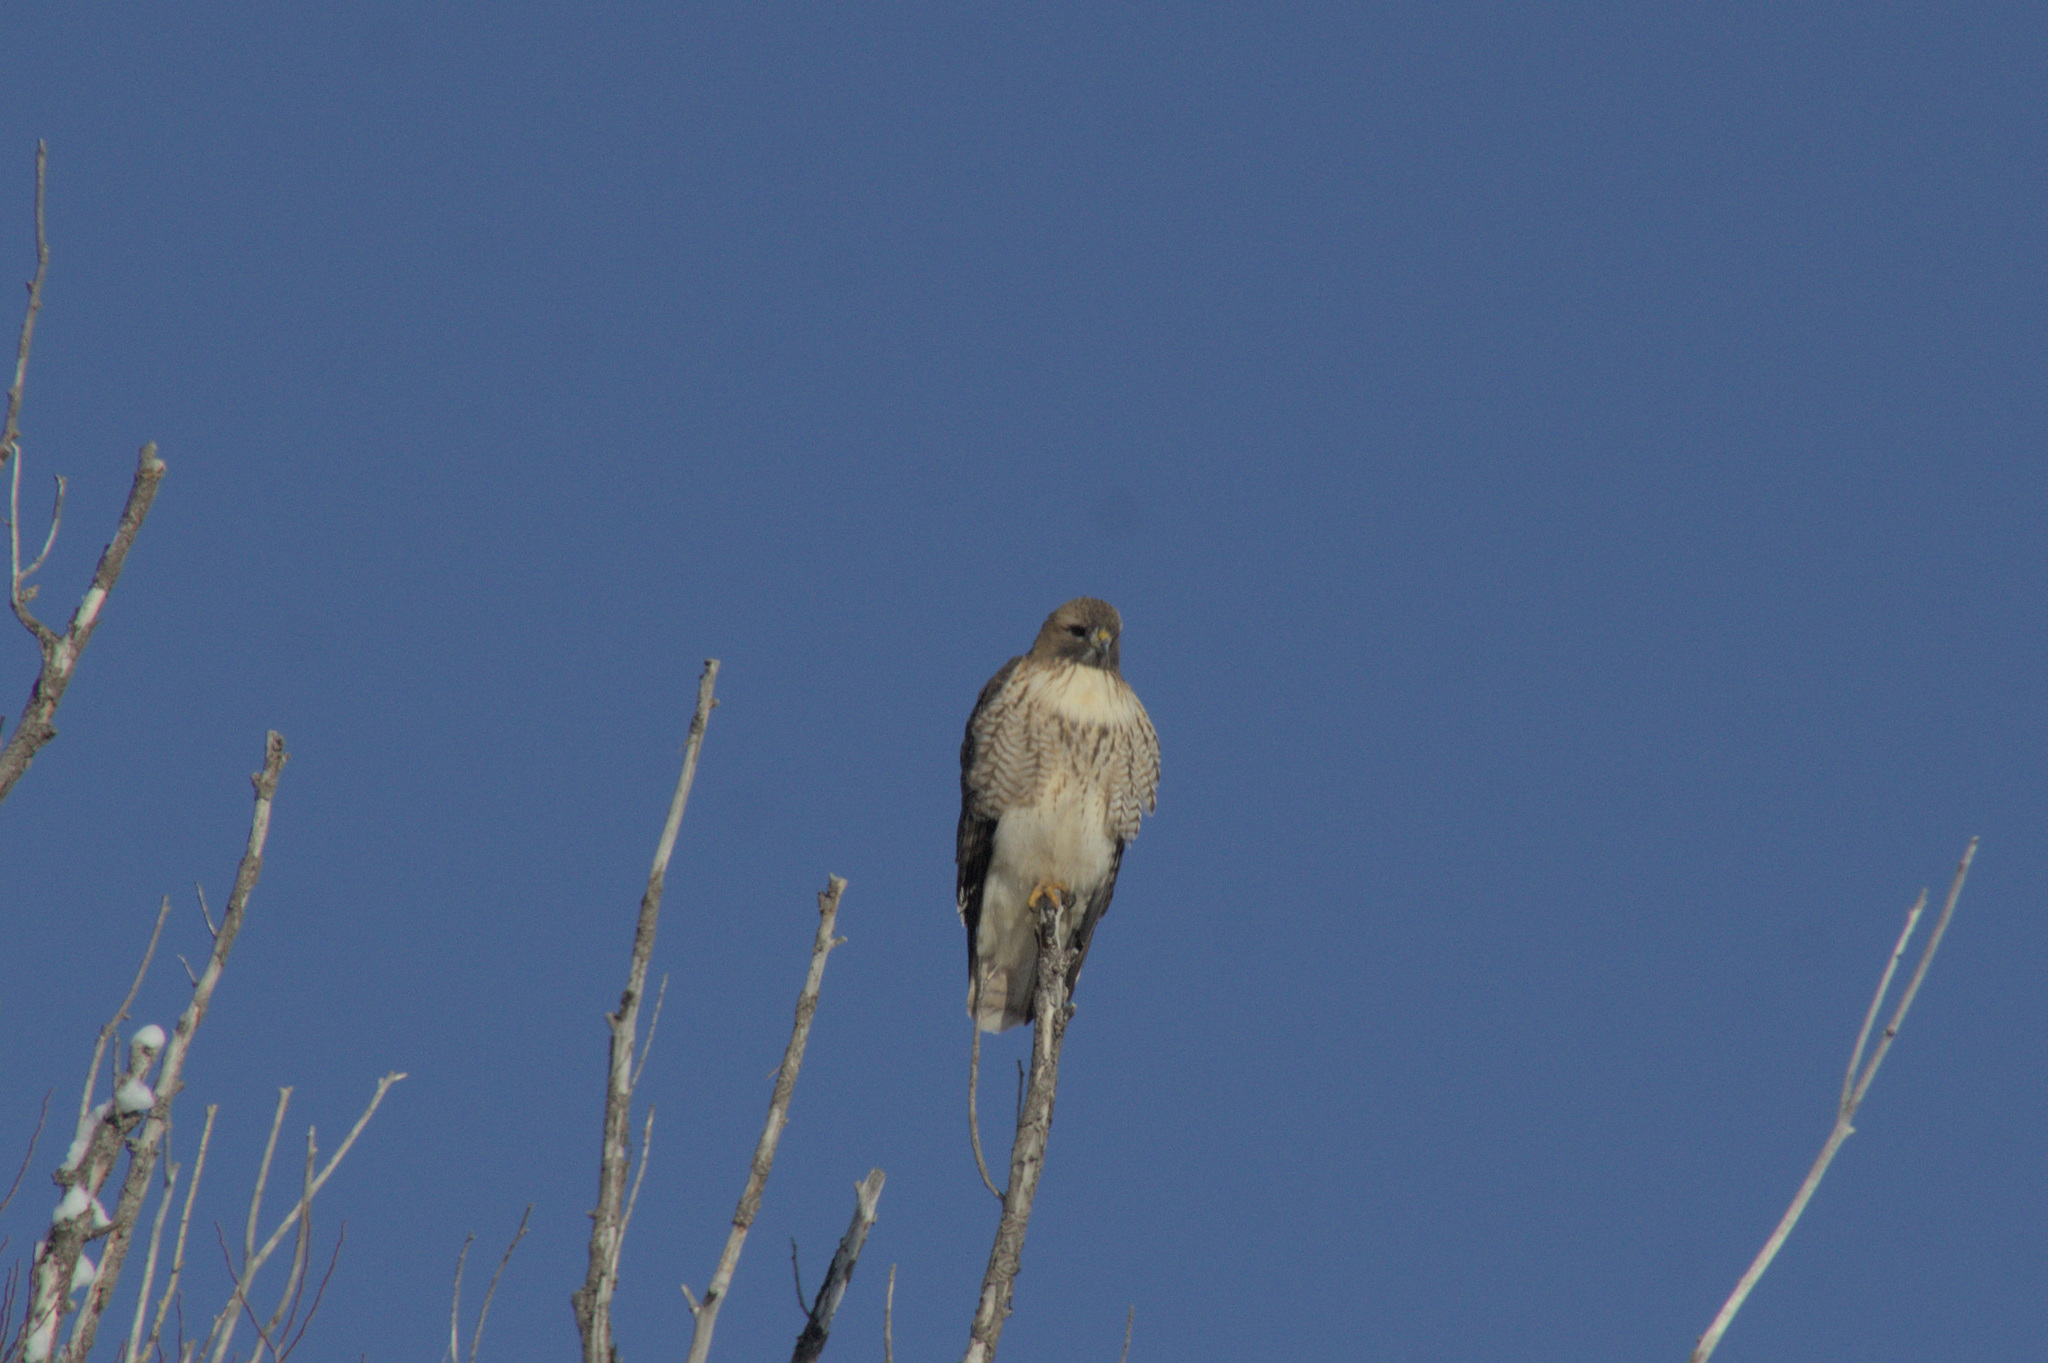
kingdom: Animalia
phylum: Chordata
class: Aves
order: Accipitriformes
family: Accipitridae
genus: Buteo
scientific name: Buteo jamaicensis
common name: Red-tailed hawk
